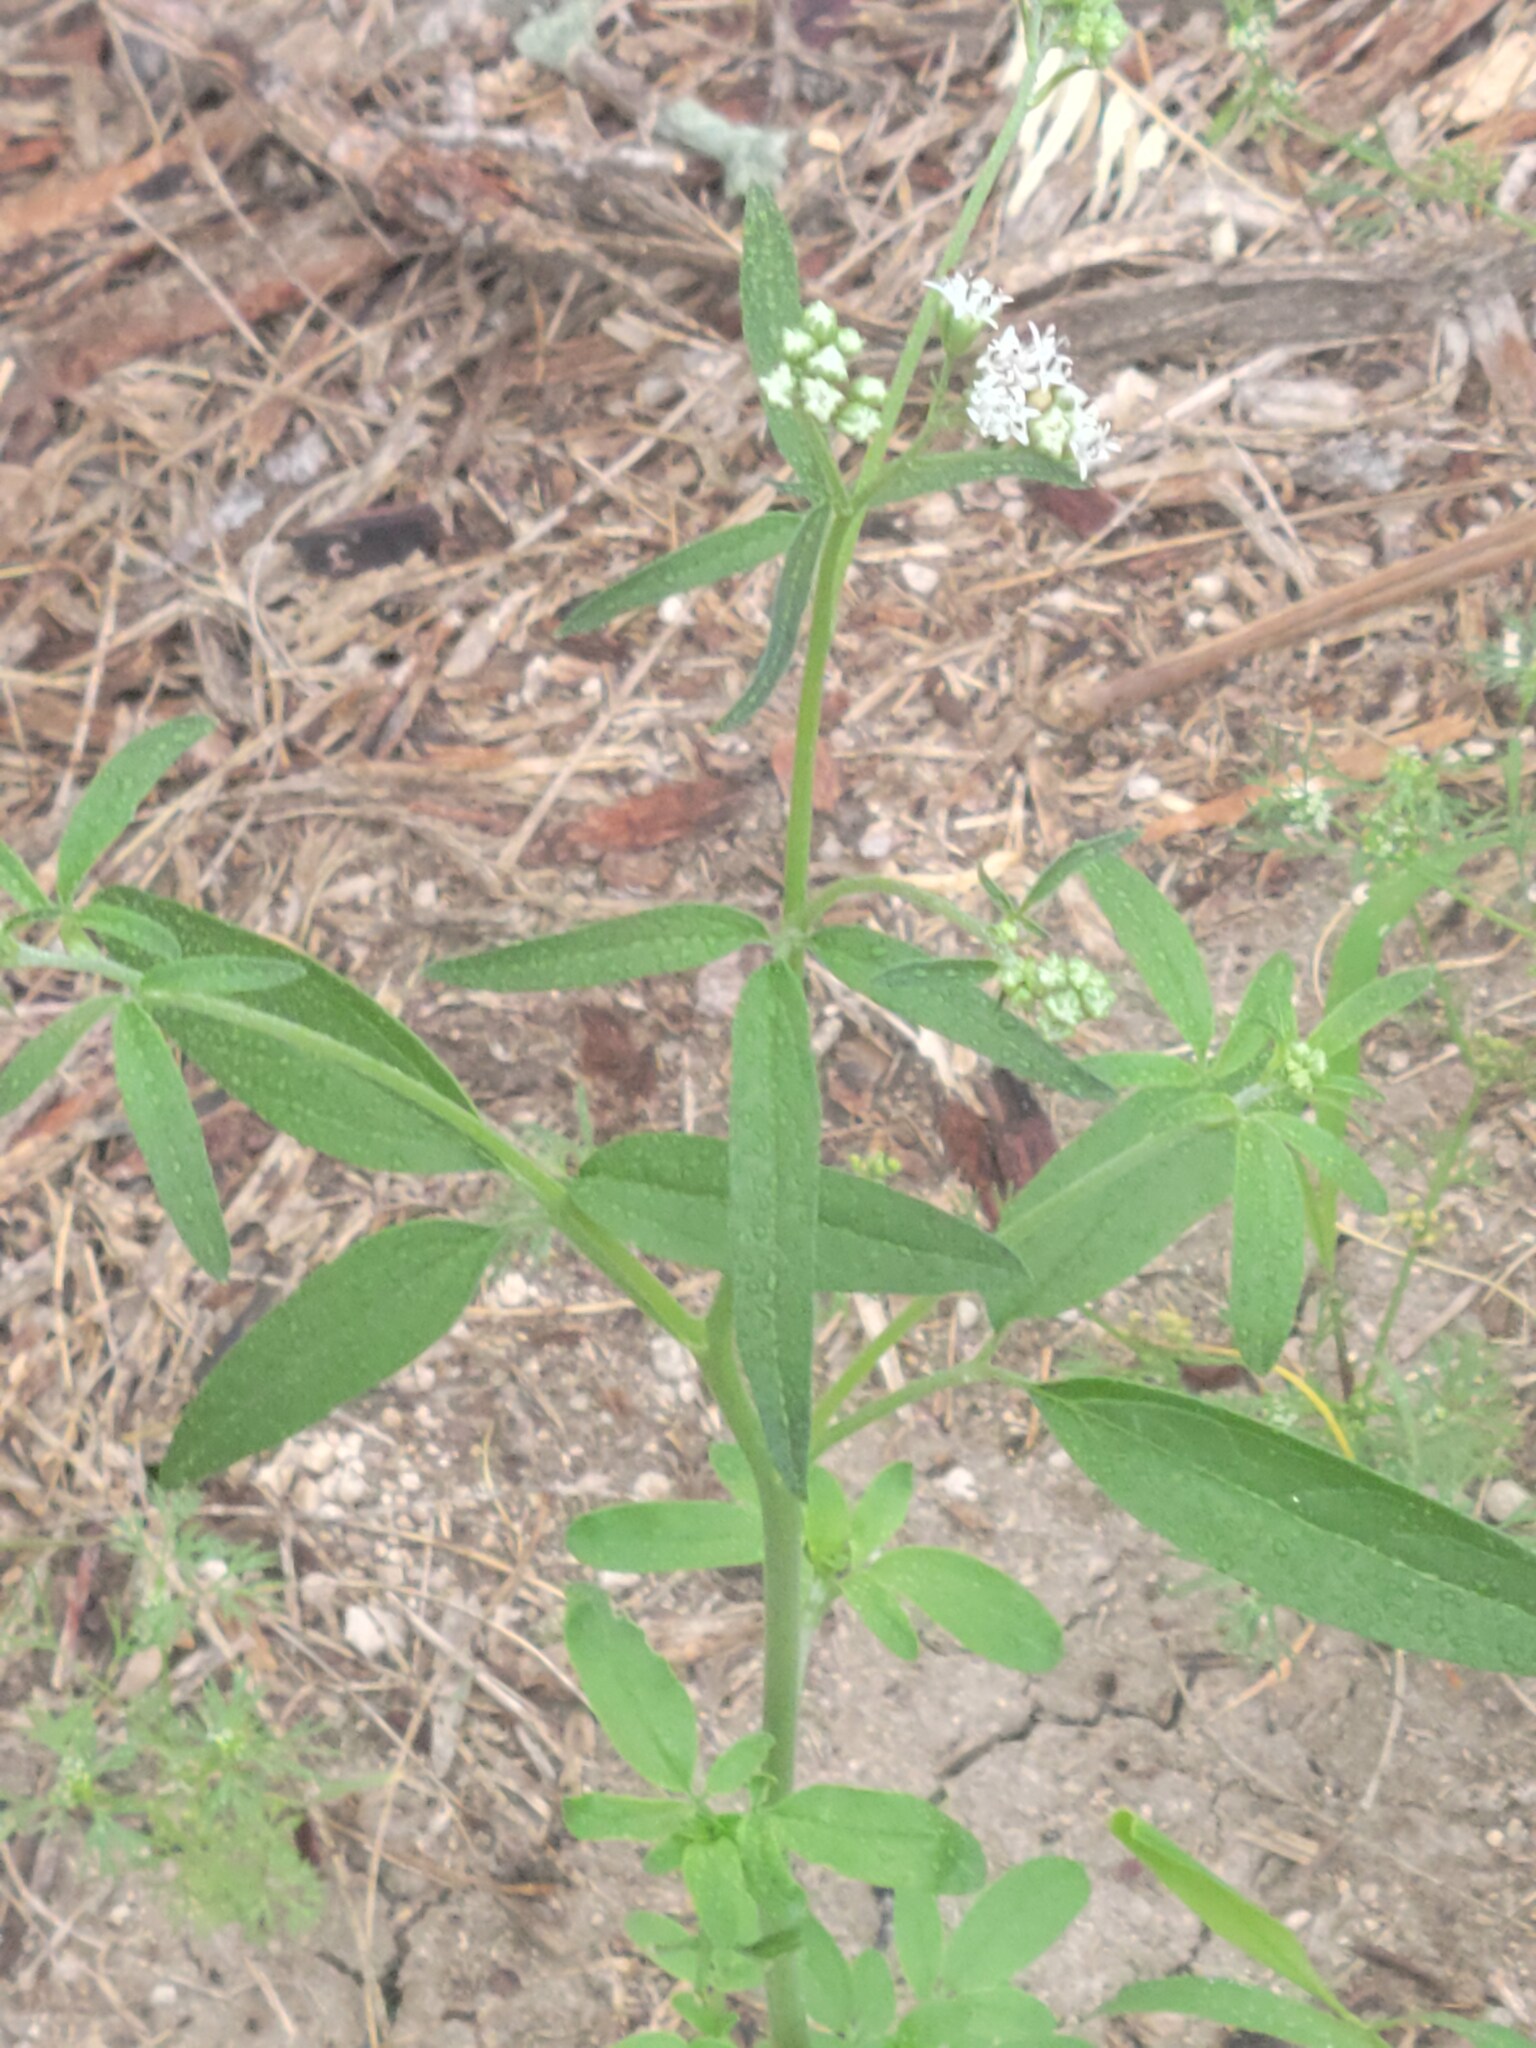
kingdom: Plantae
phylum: Tracheophyta
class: Magnoliopsida
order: Asterales
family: Asteraceae
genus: Florestina
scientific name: Florestina tripteris
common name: Sticky florestina
